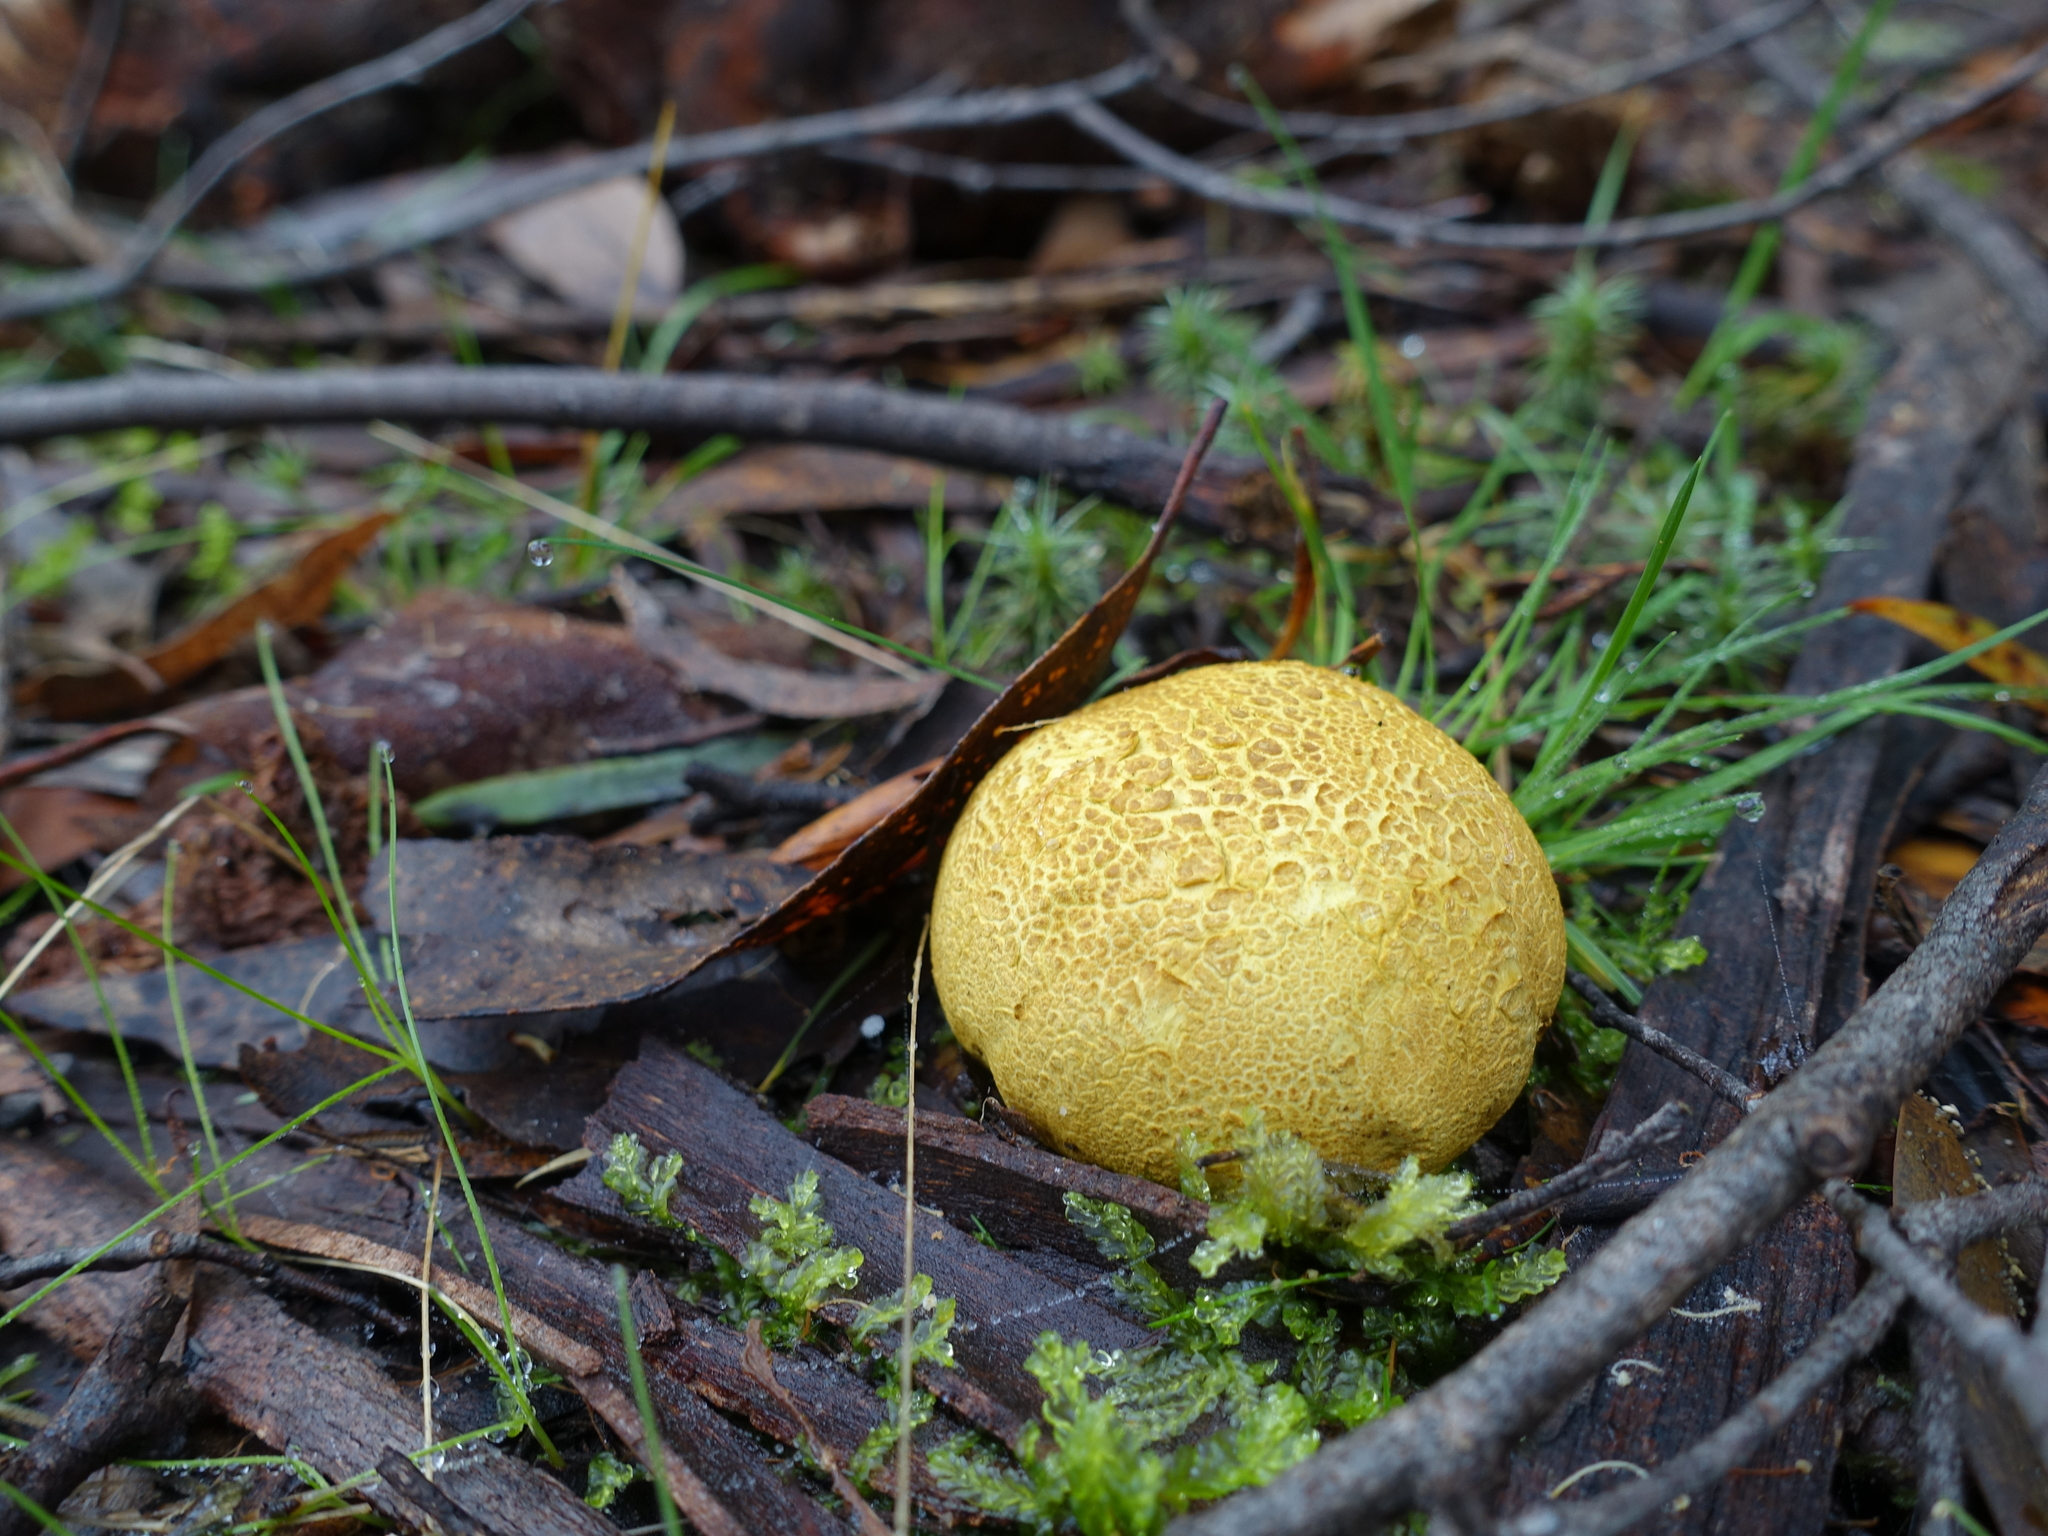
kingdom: Fungi
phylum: Basidiomycota
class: Agaricomycetes
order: Boletales
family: Sclerodermataceae
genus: Scleroderma
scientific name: Scleroderma cepa
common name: Onion earthball
